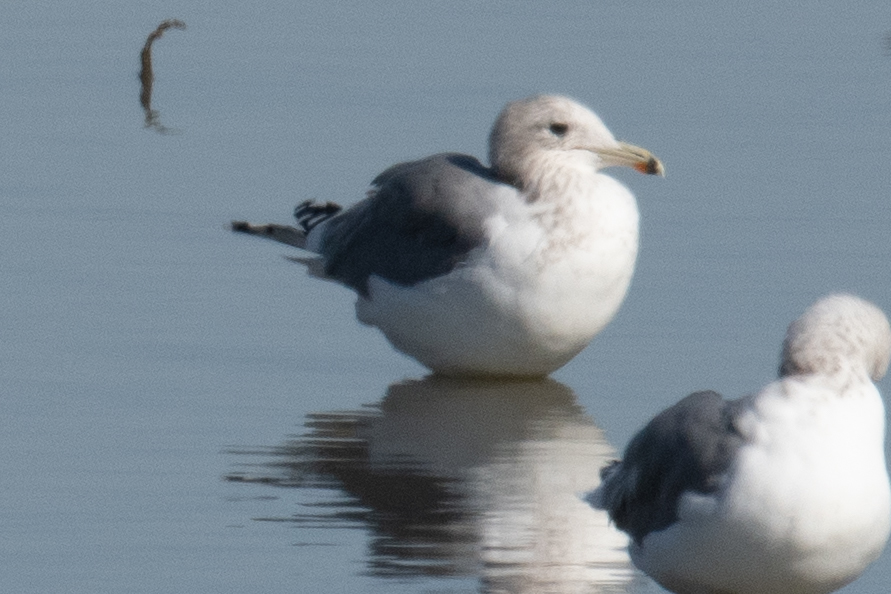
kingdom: Animalia
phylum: Chordata
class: Aves
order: Charadriiformes
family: Laridae
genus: Larus
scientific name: Larus californicus
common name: California gull
